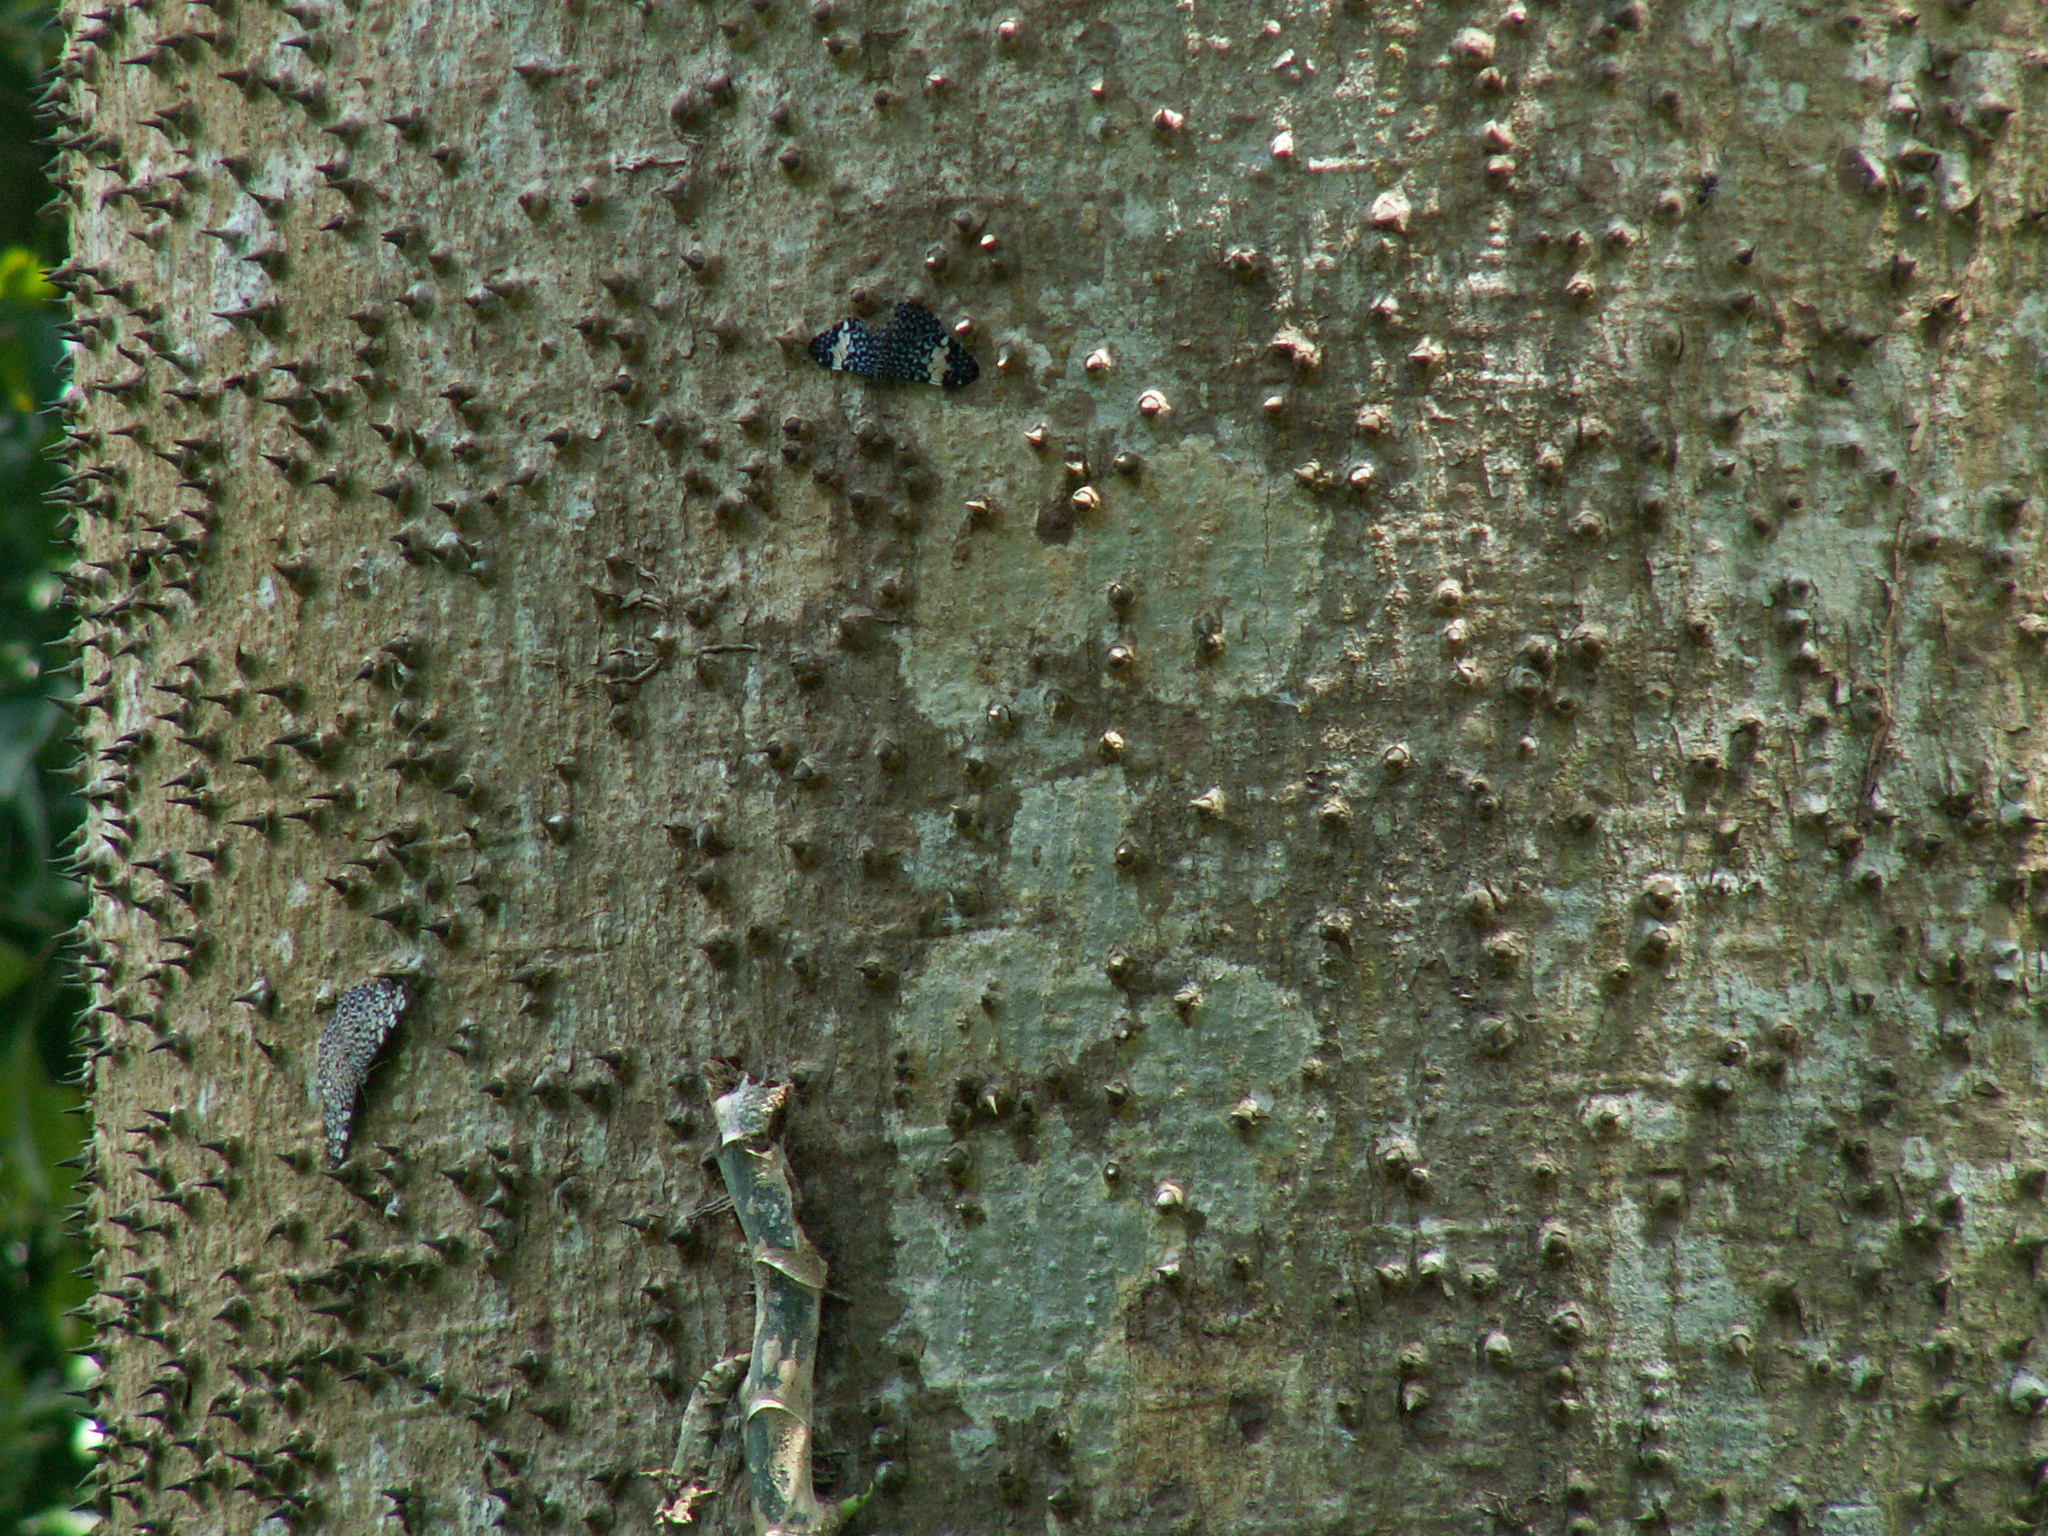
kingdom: Animalia
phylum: Arthropoda
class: Insecta
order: Lepidoptera
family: Nymphalidae
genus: Hamadryas
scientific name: Hamadryas amphinome
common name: Red cracker
